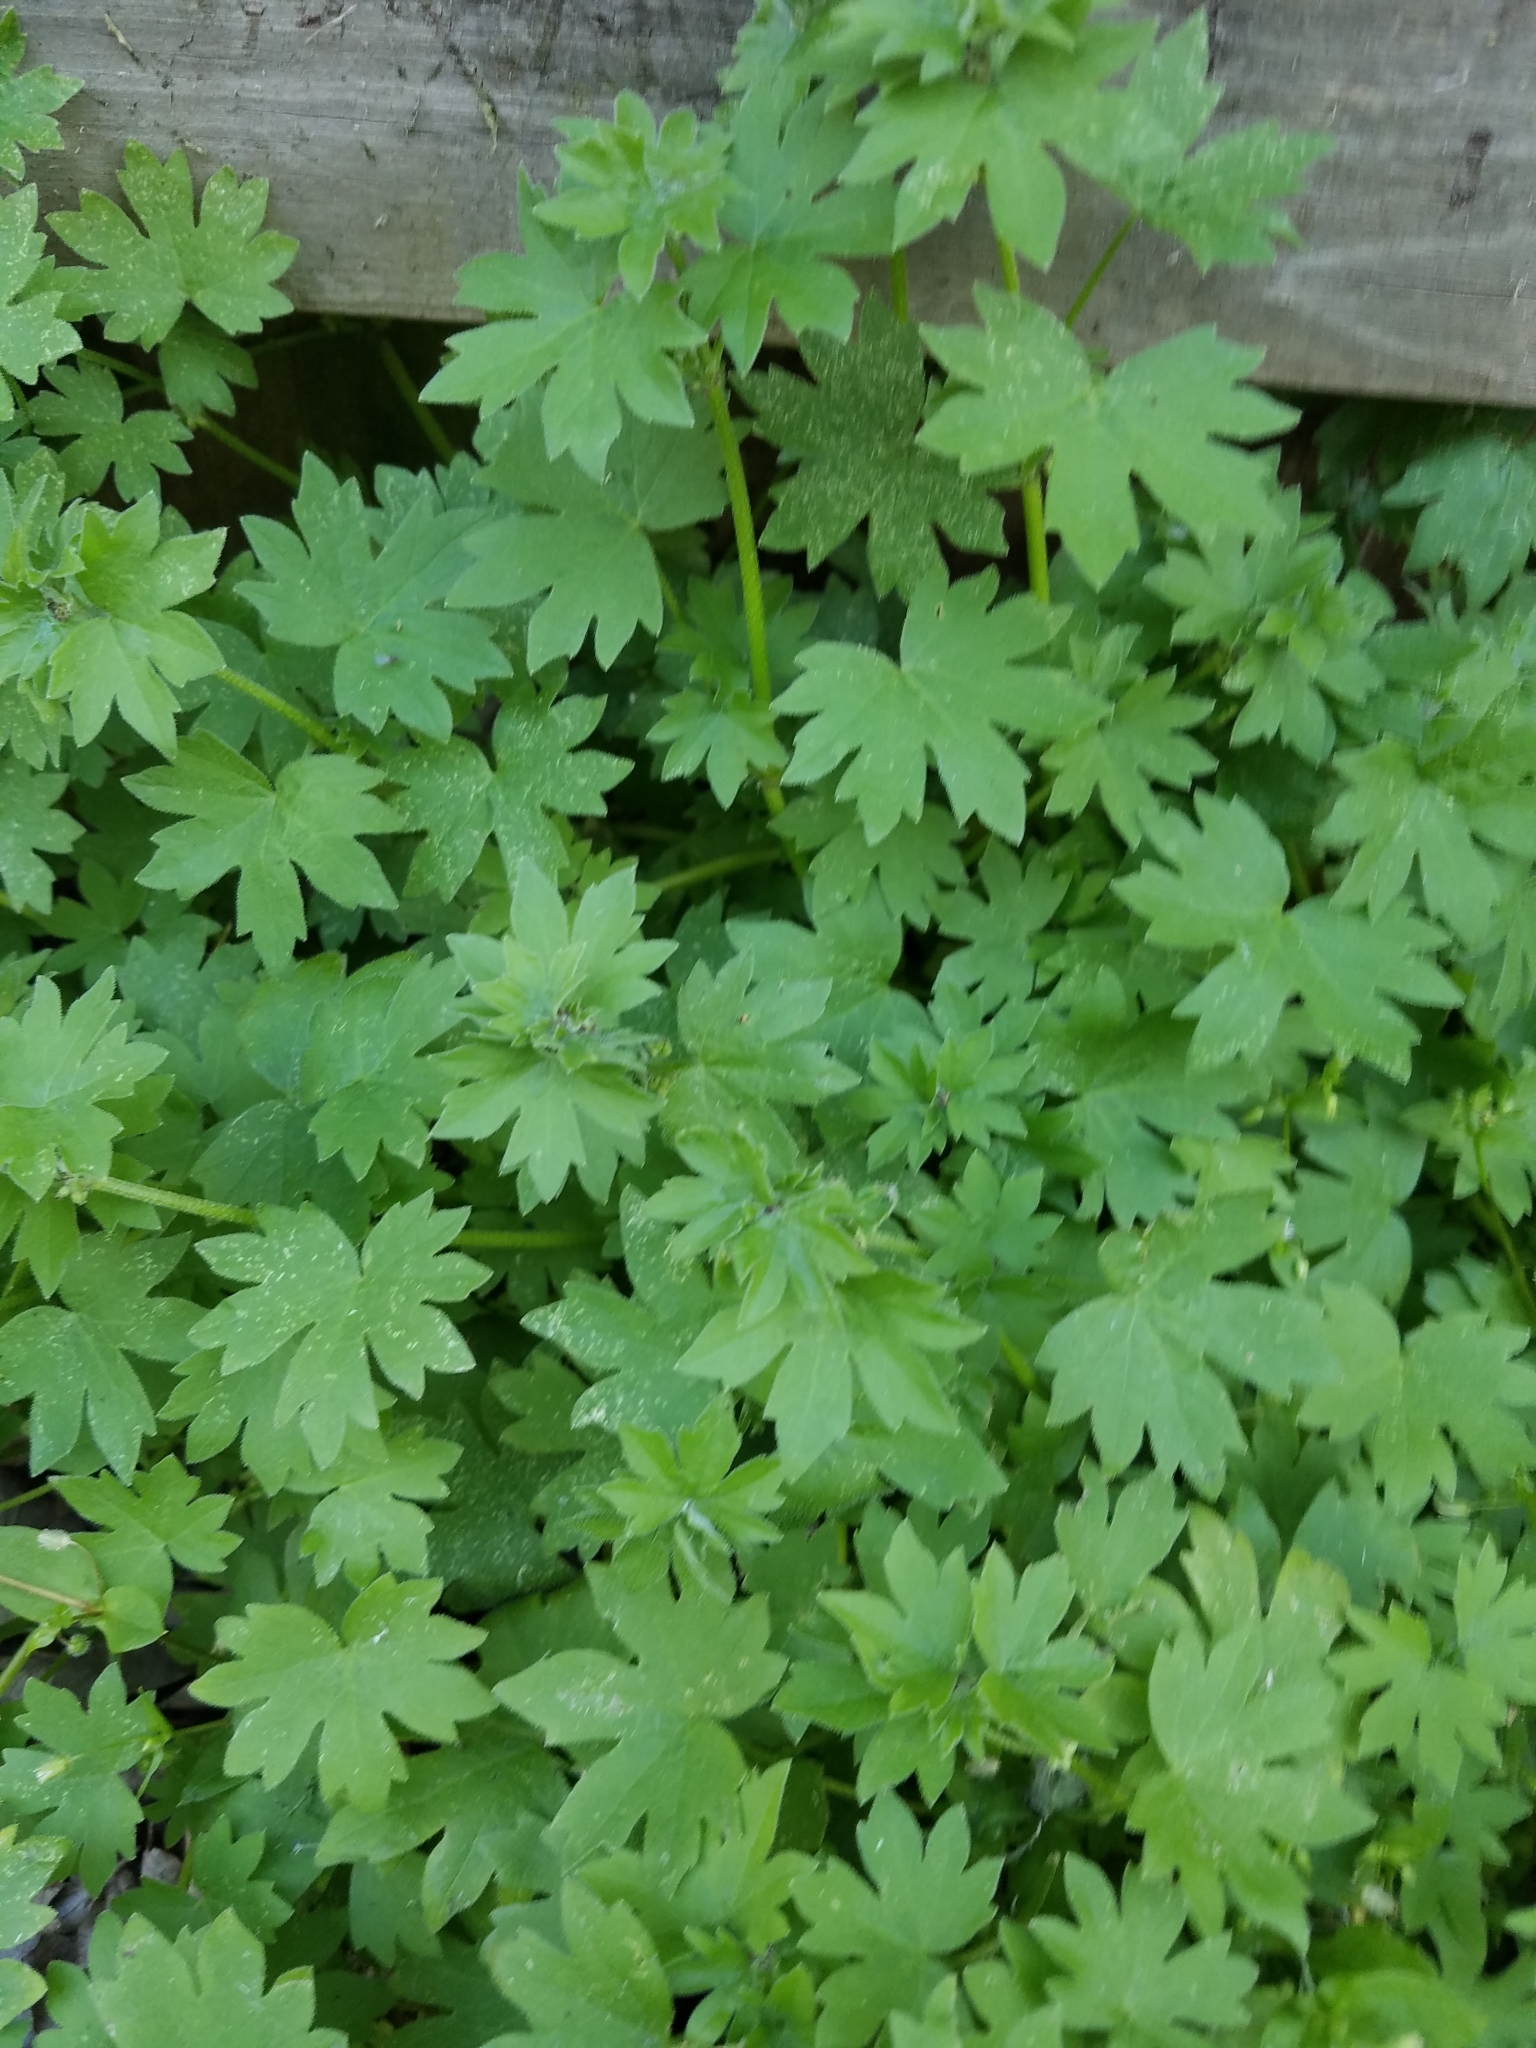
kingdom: Plantae
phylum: Tracheophyta
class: Magnoliopsida
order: Apiales
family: Apiaceae
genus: Bowlesia
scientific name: Bowlesia incana
